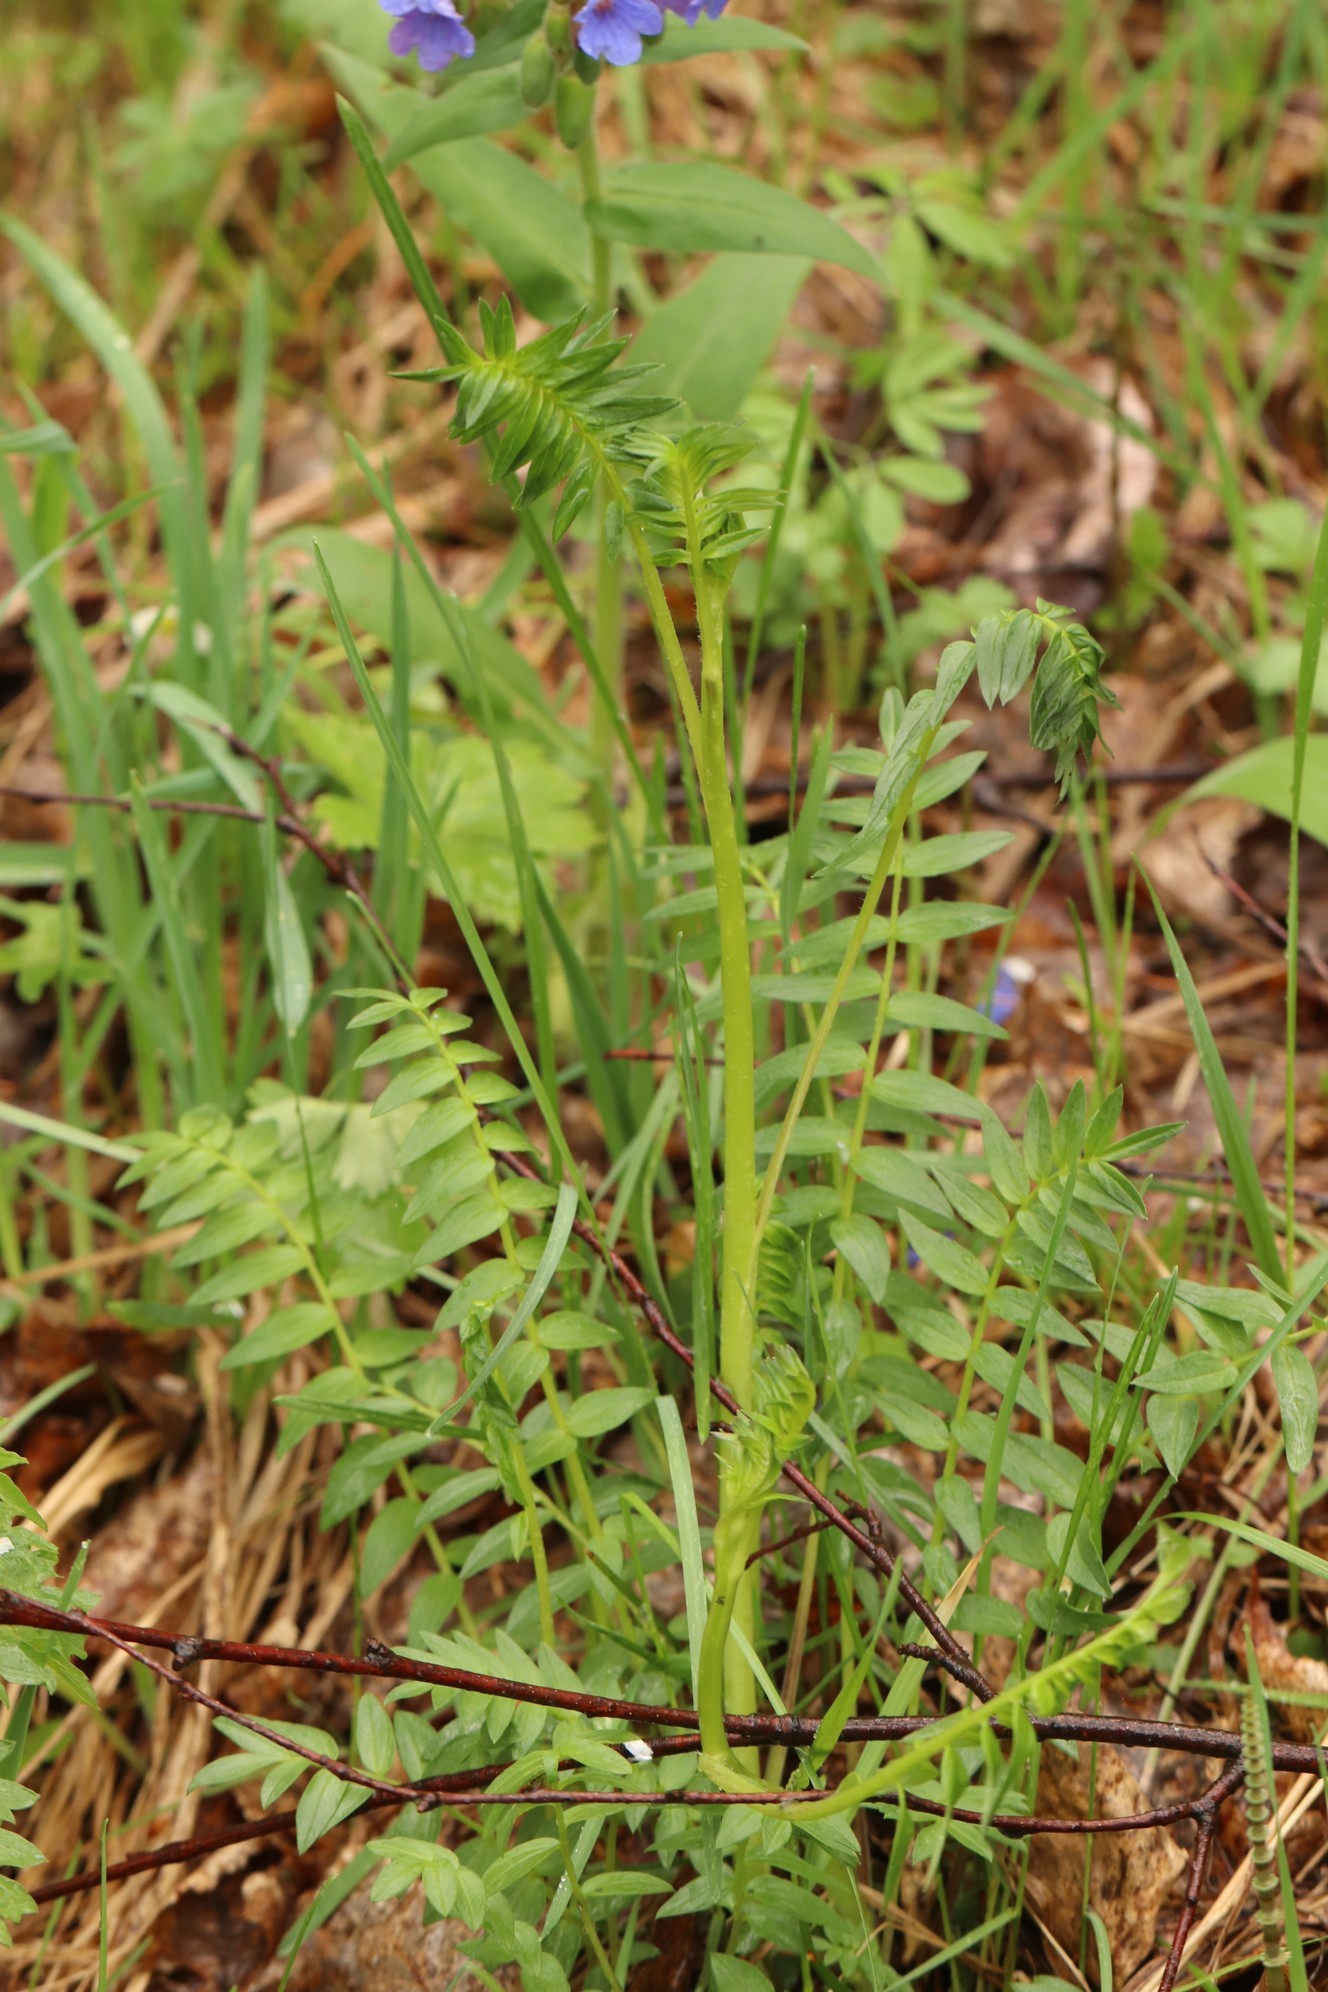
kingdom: Plantae
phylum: Tracheophyta
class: Magnoliopsida
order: Ericales
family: Polemoniaceae
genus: Polemonium
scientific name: Polemonium caeruleum
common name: Jacob's-ladder
